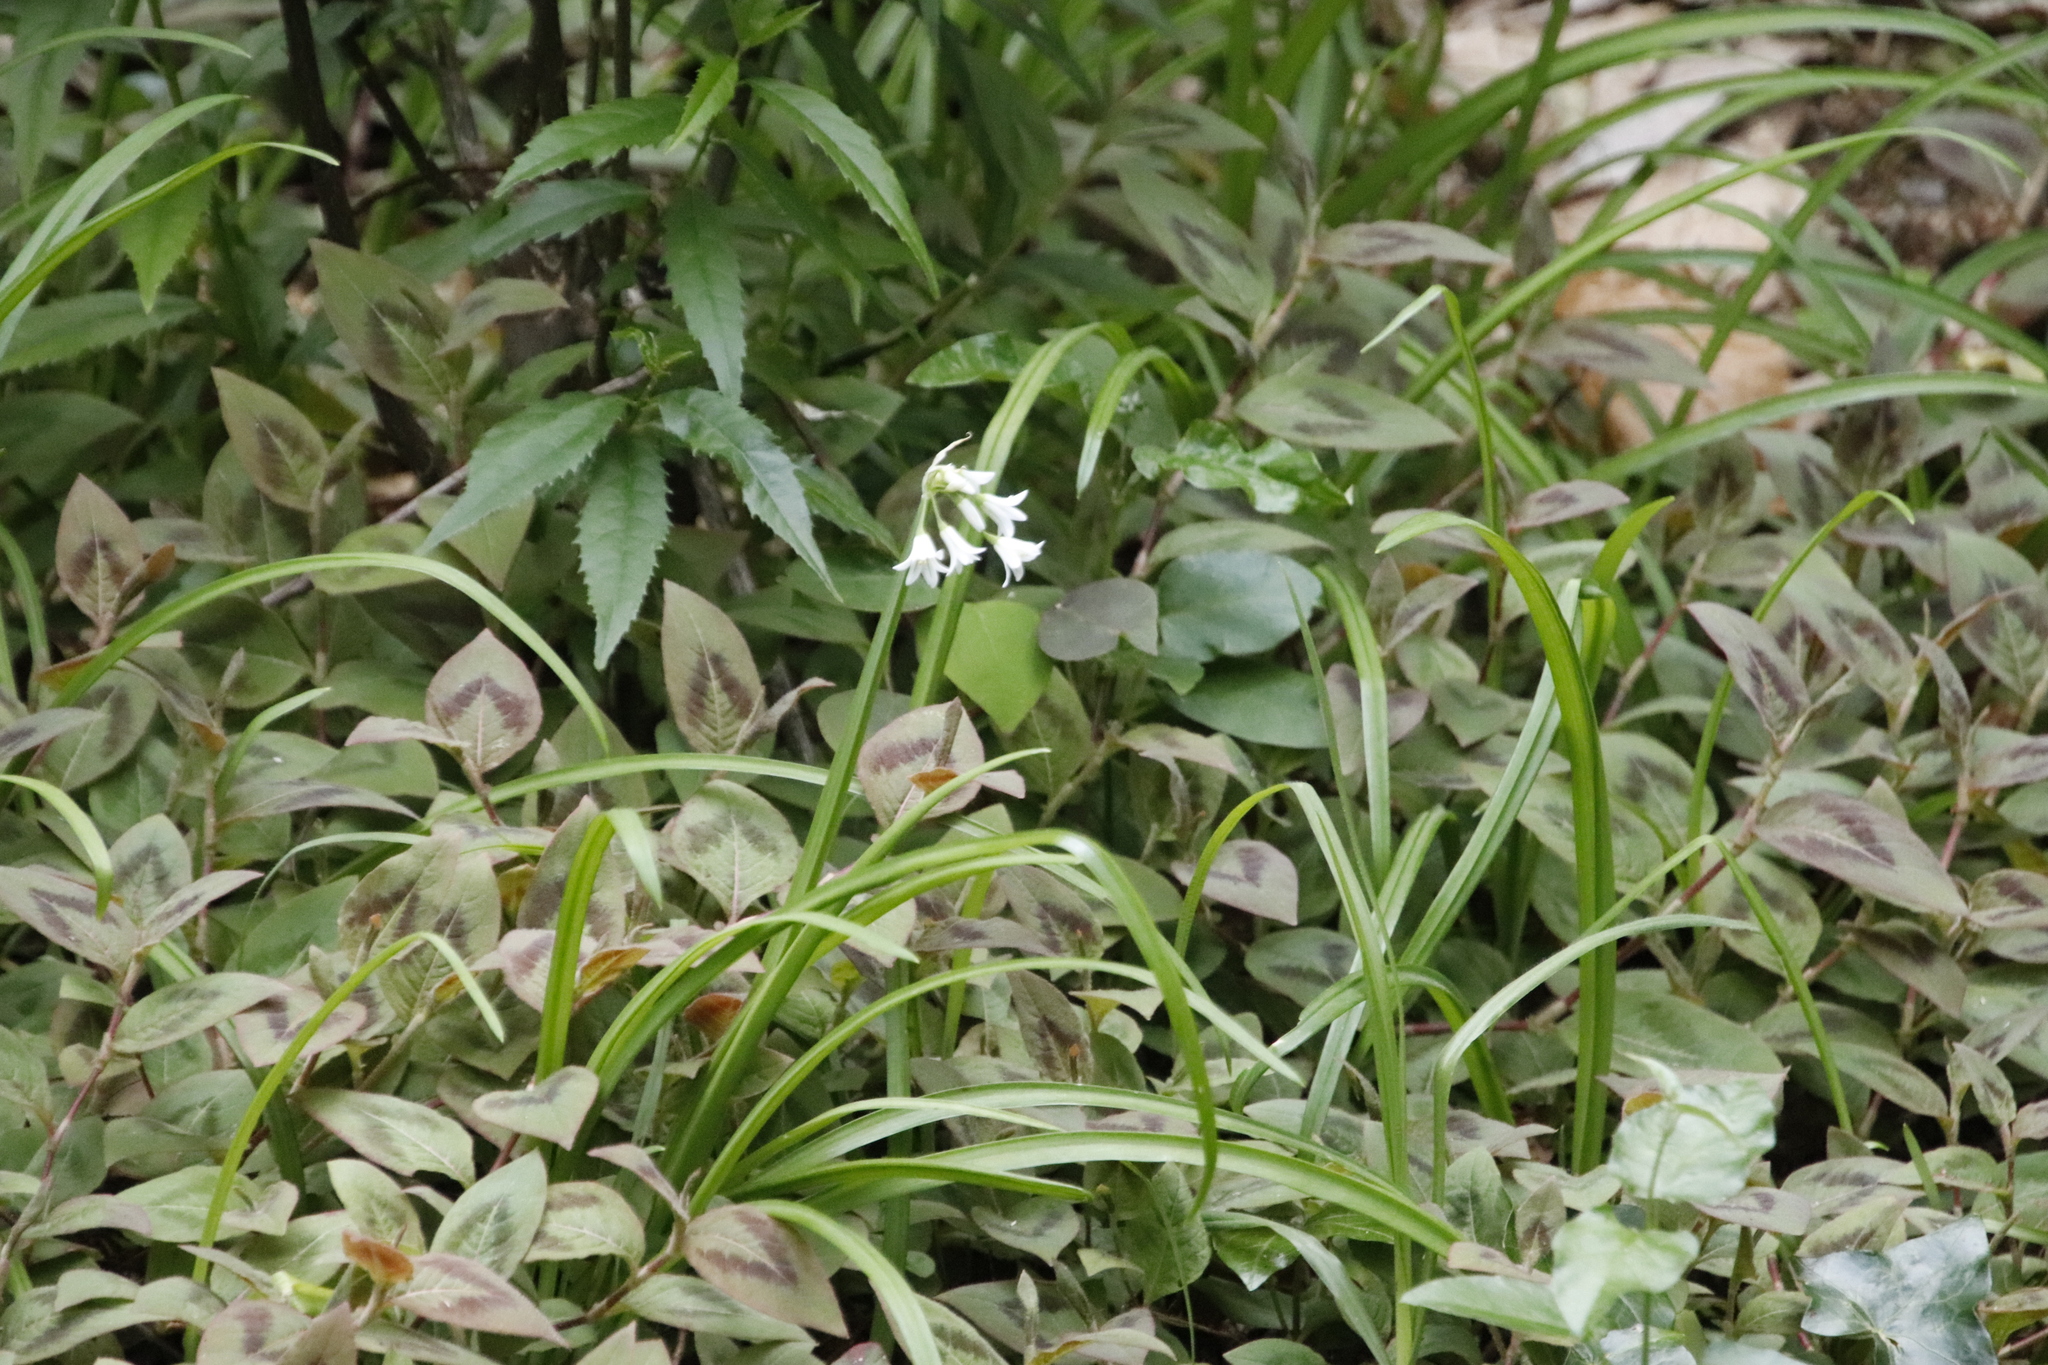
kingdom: Plantae
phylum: Tracheophyta
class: Liliopsida
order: Asparagales
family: Amaryllidaceae
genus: Allium
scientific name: Allium triquetrum
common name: Three-cornered garlic
